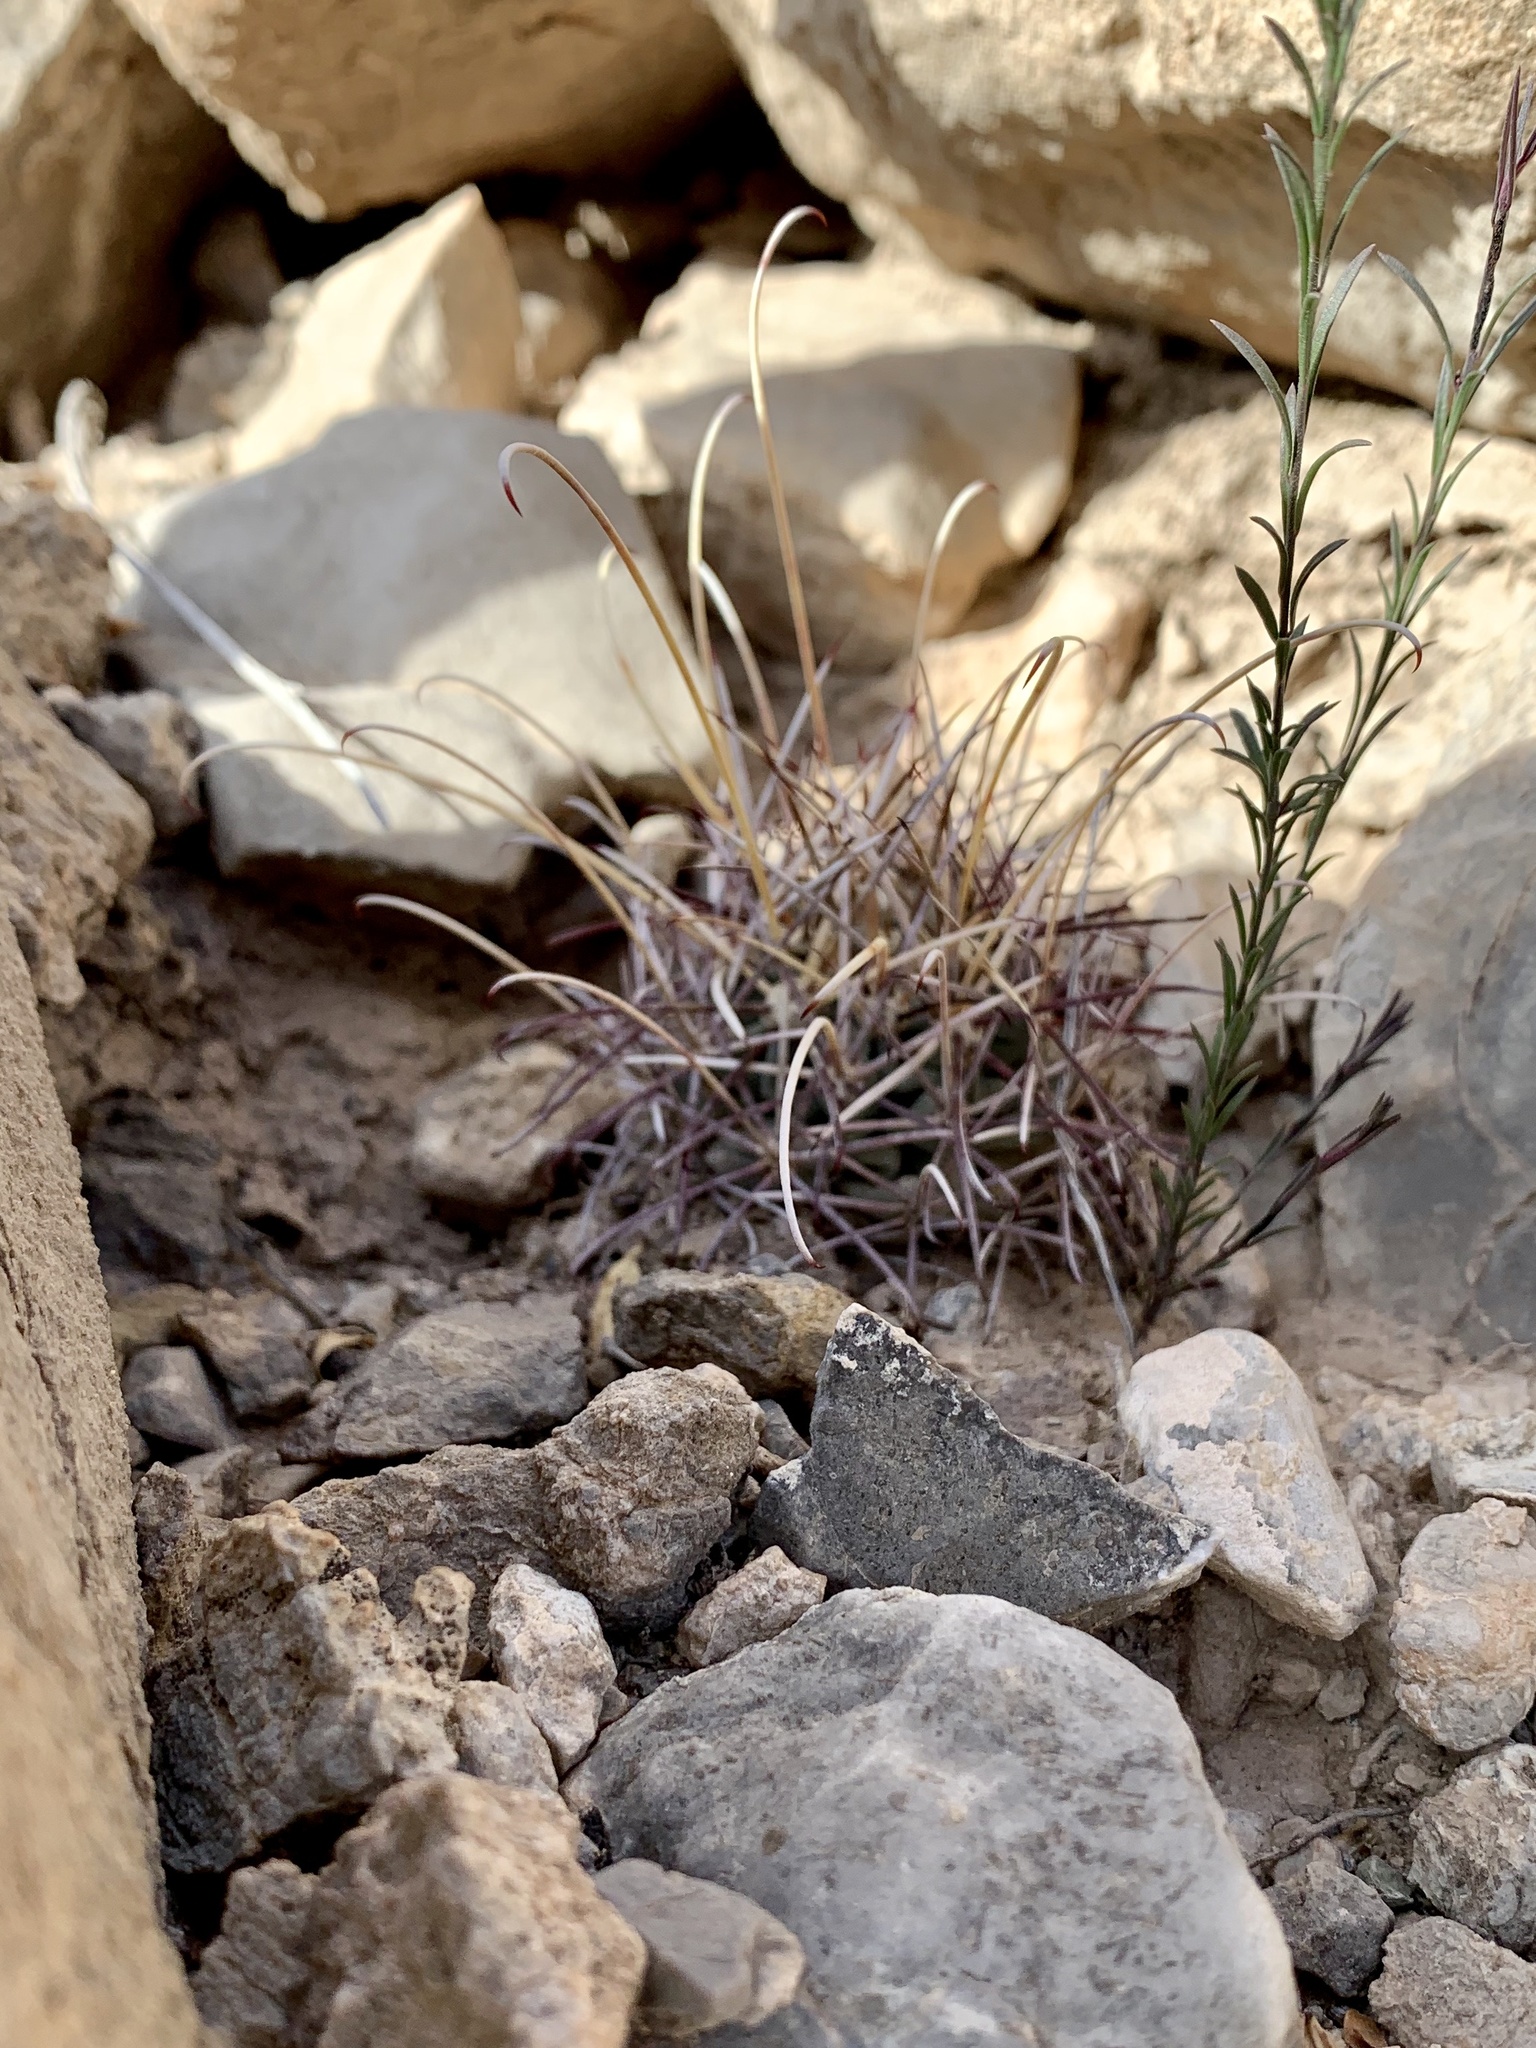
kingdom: Plantae
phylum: Tracheophyta
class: Magnoliopsida
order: Caryophyllales
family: Cactaceae
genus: Ferocactus
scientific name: Ferocactus uncinatus
